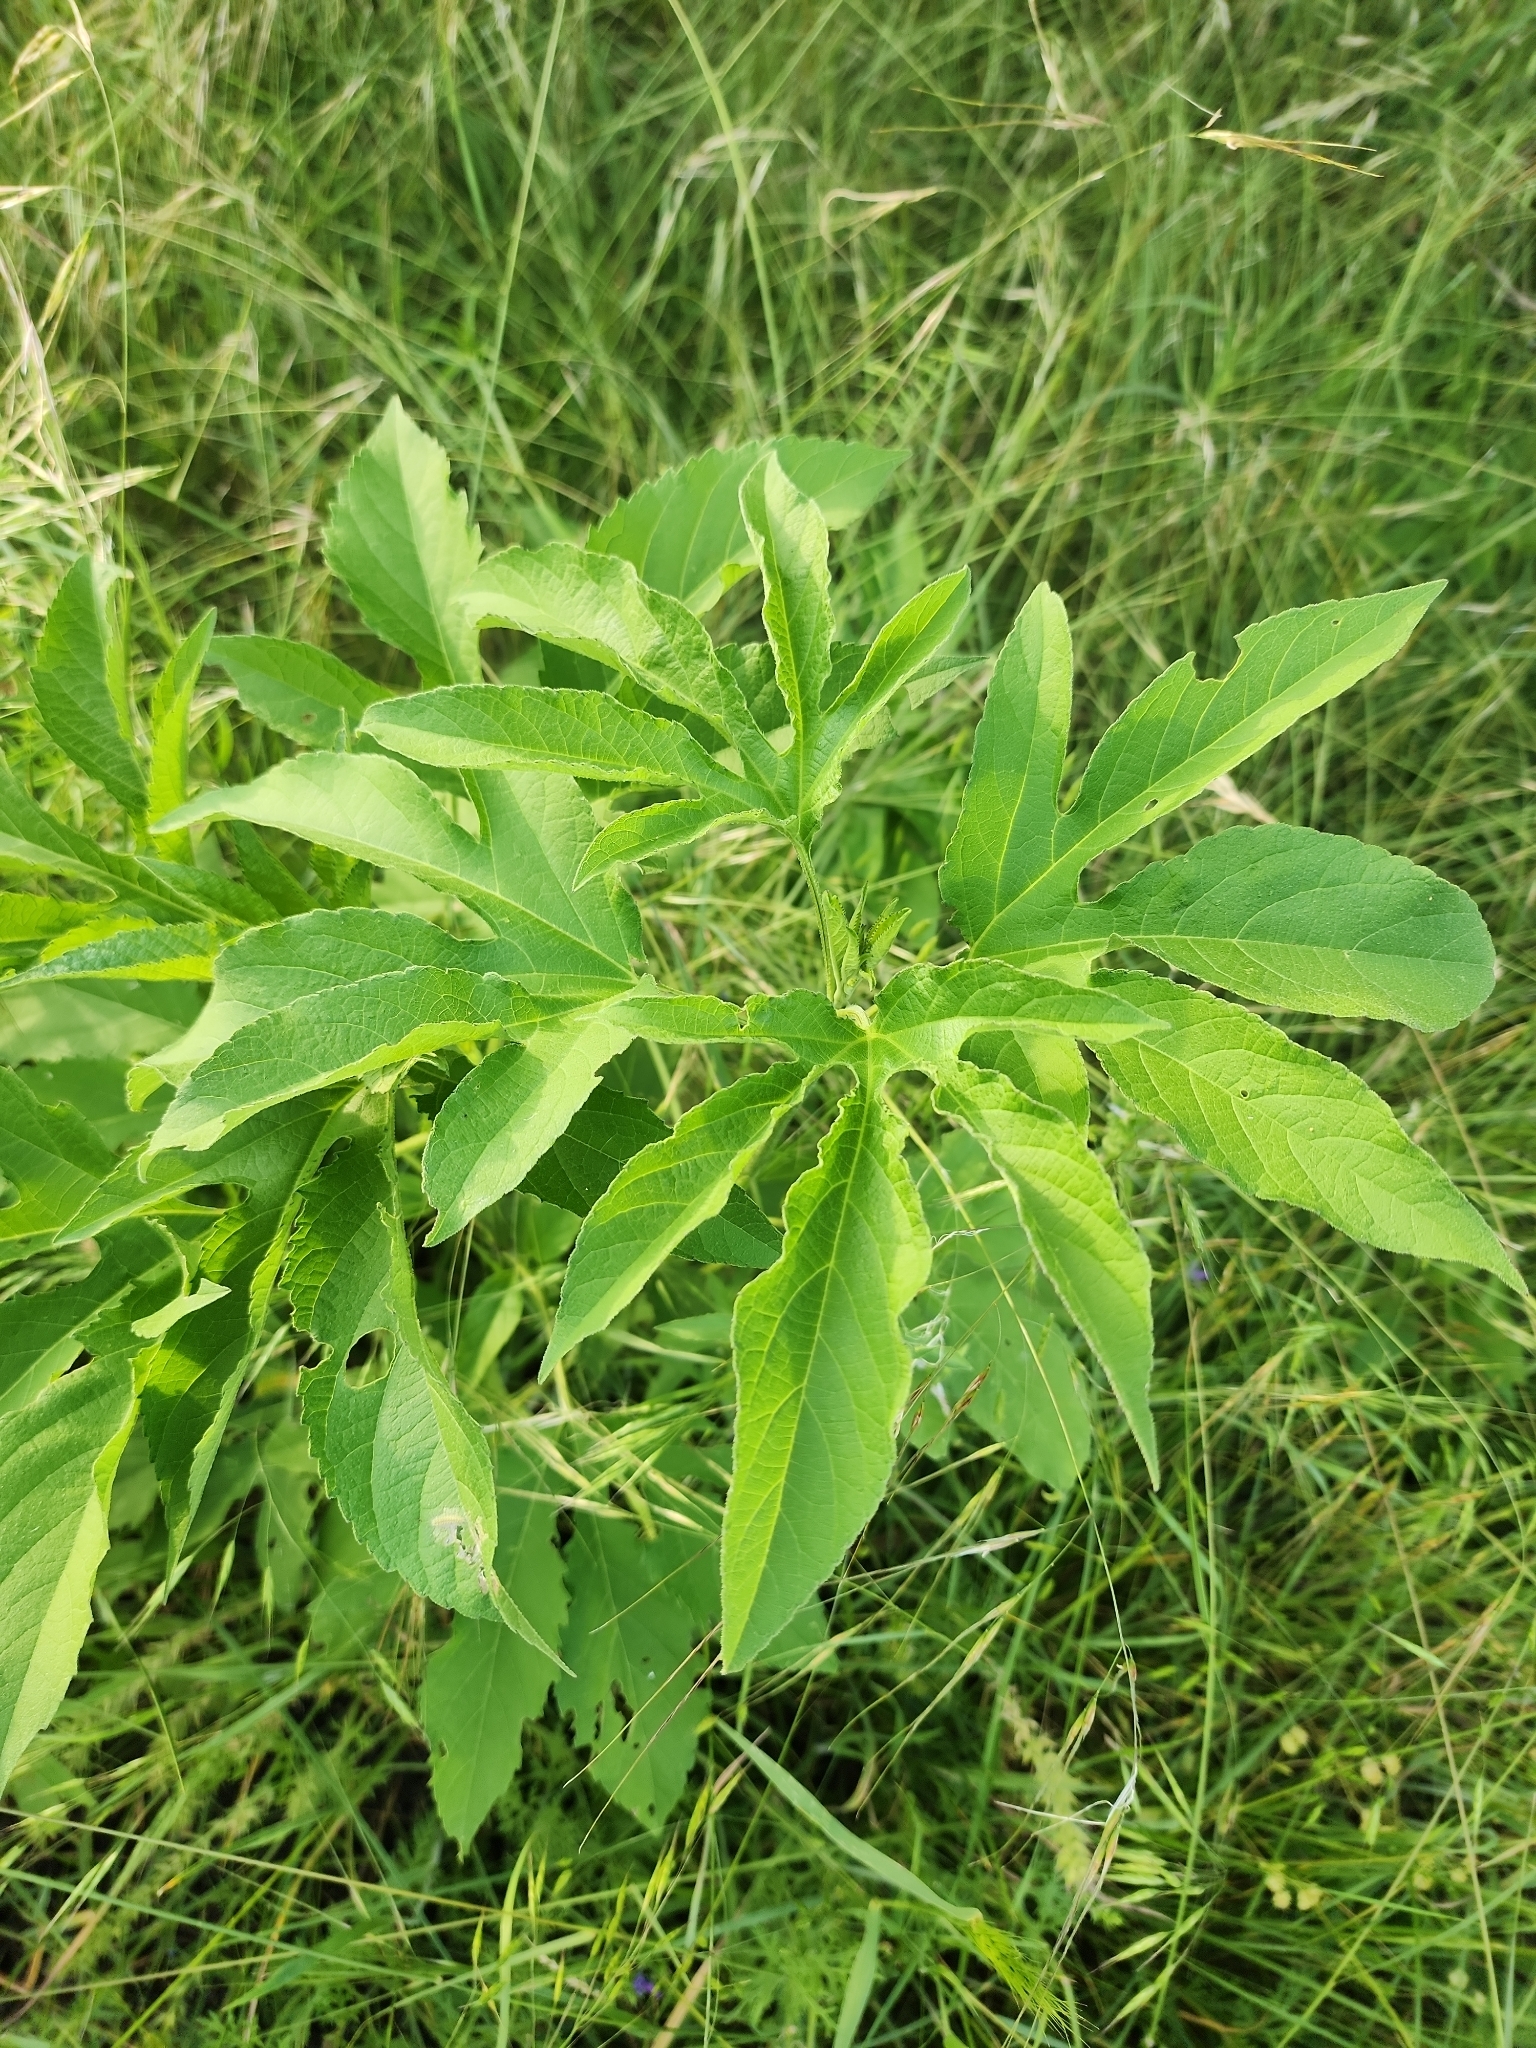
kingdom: Plantae
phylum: Tracheophyta
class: Magnoliopsida
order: Asterales
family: Asteraceae
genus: Ambrosia
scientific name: Ambrosia trifida
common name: Giant ragweed
